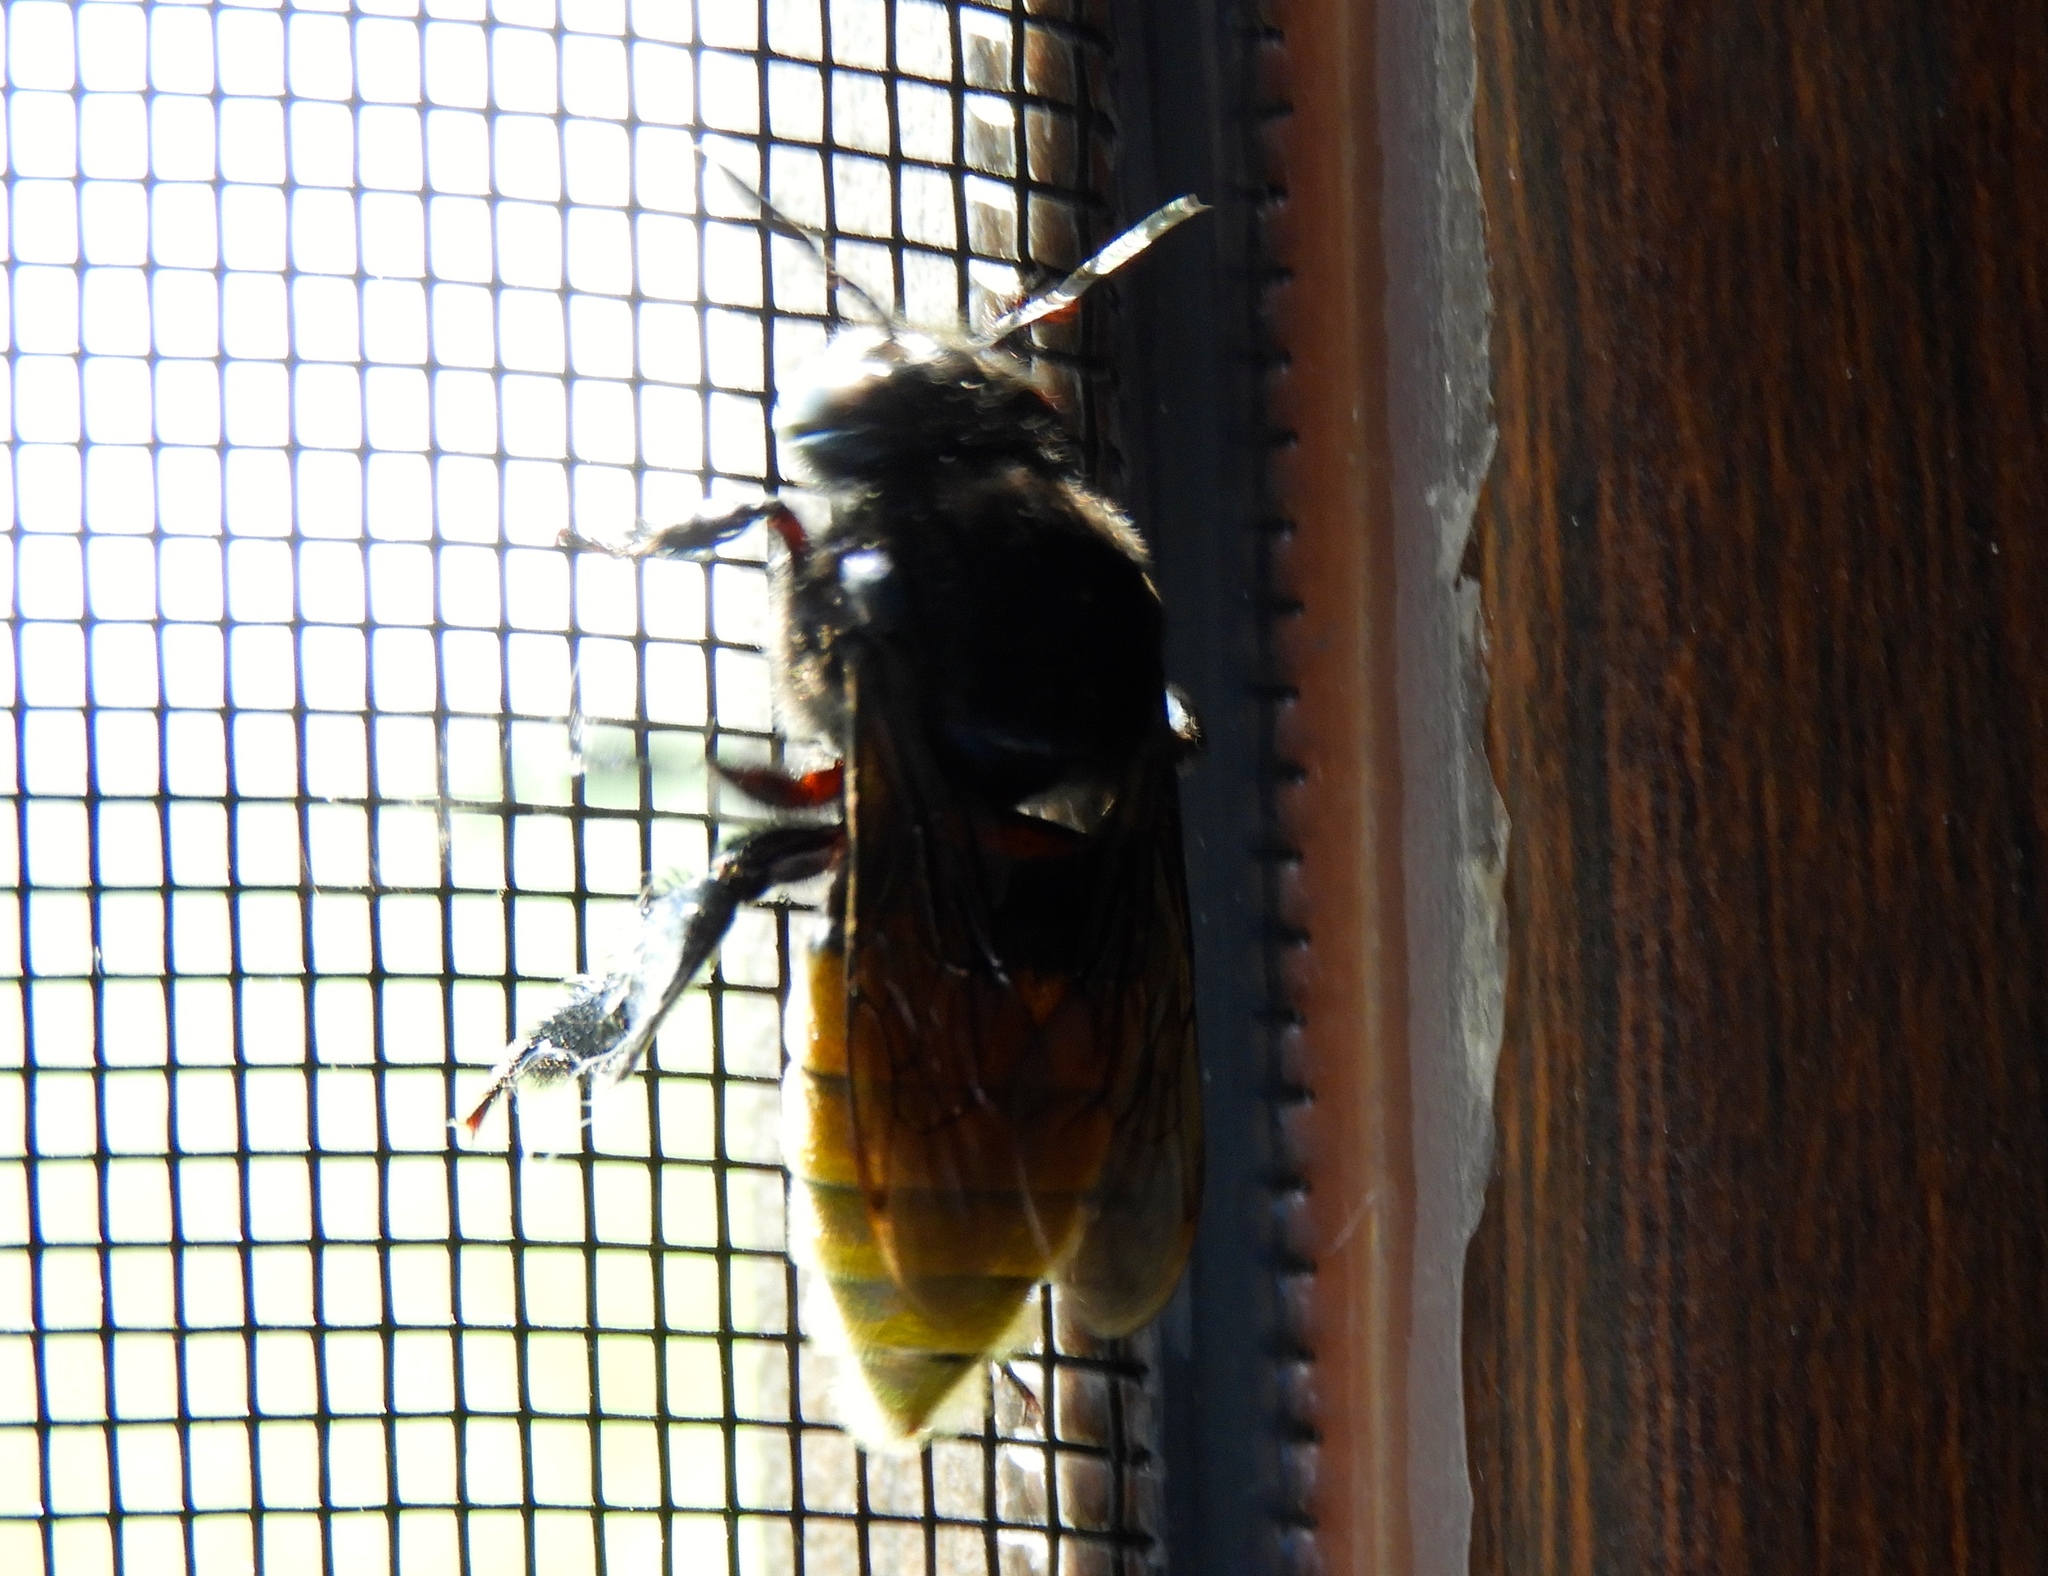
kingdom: Animalia
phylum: Arthropoda
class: Insecta
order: Hymenoptera
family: Apidae
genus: Eulaema
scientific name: Eulaema polychroma
